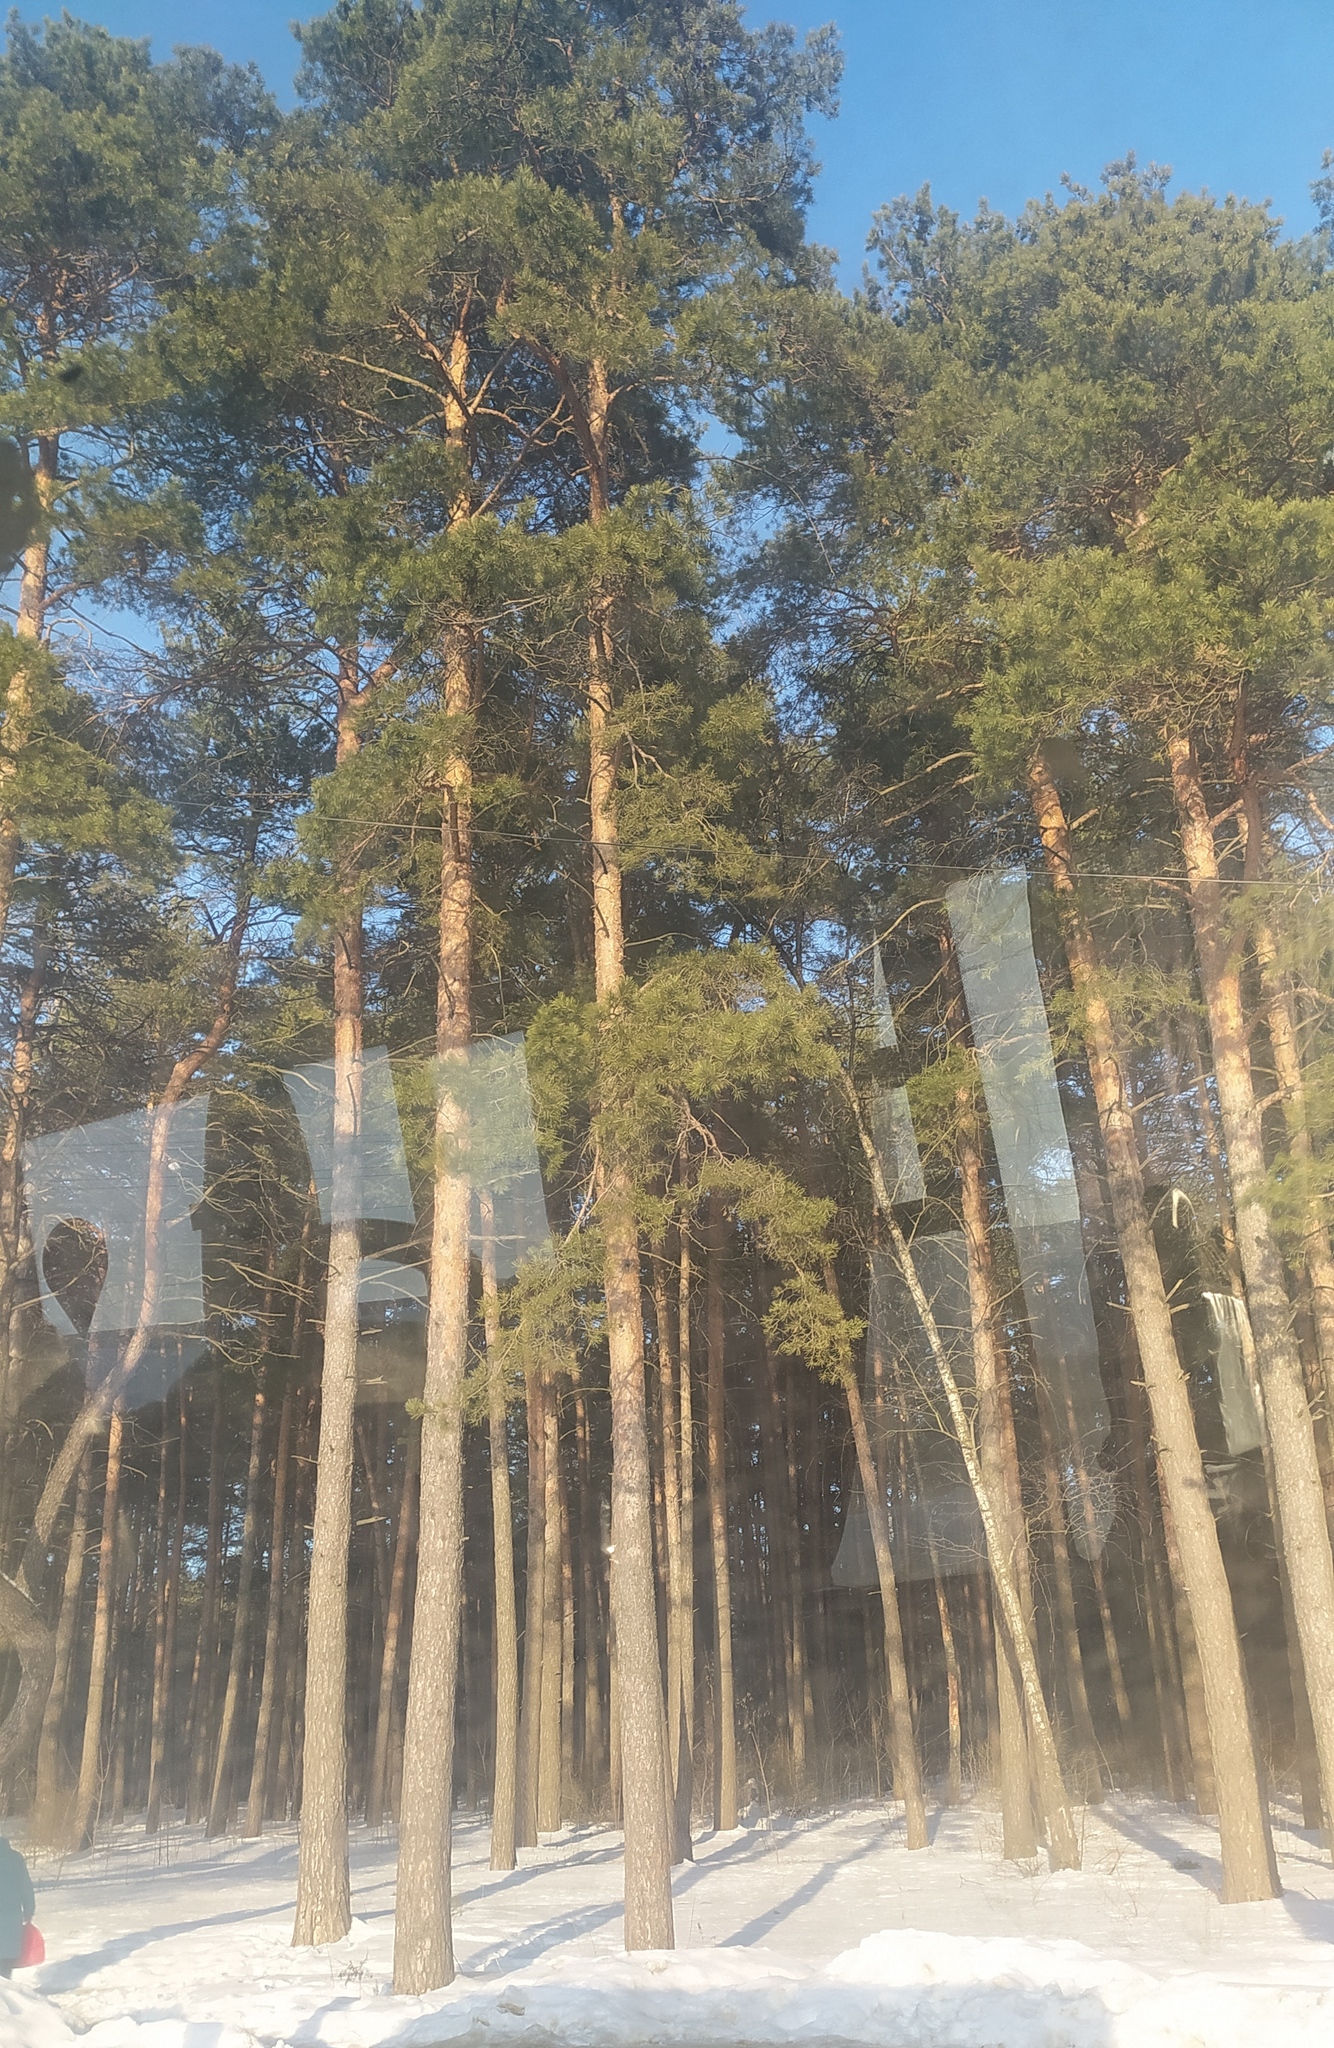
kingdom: Plantae
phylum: Tracheophyta
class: Pinopsida
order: Pinales
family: Pinaceae
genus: Pinus
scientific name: Pinus sylvestris
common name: Scots pine
